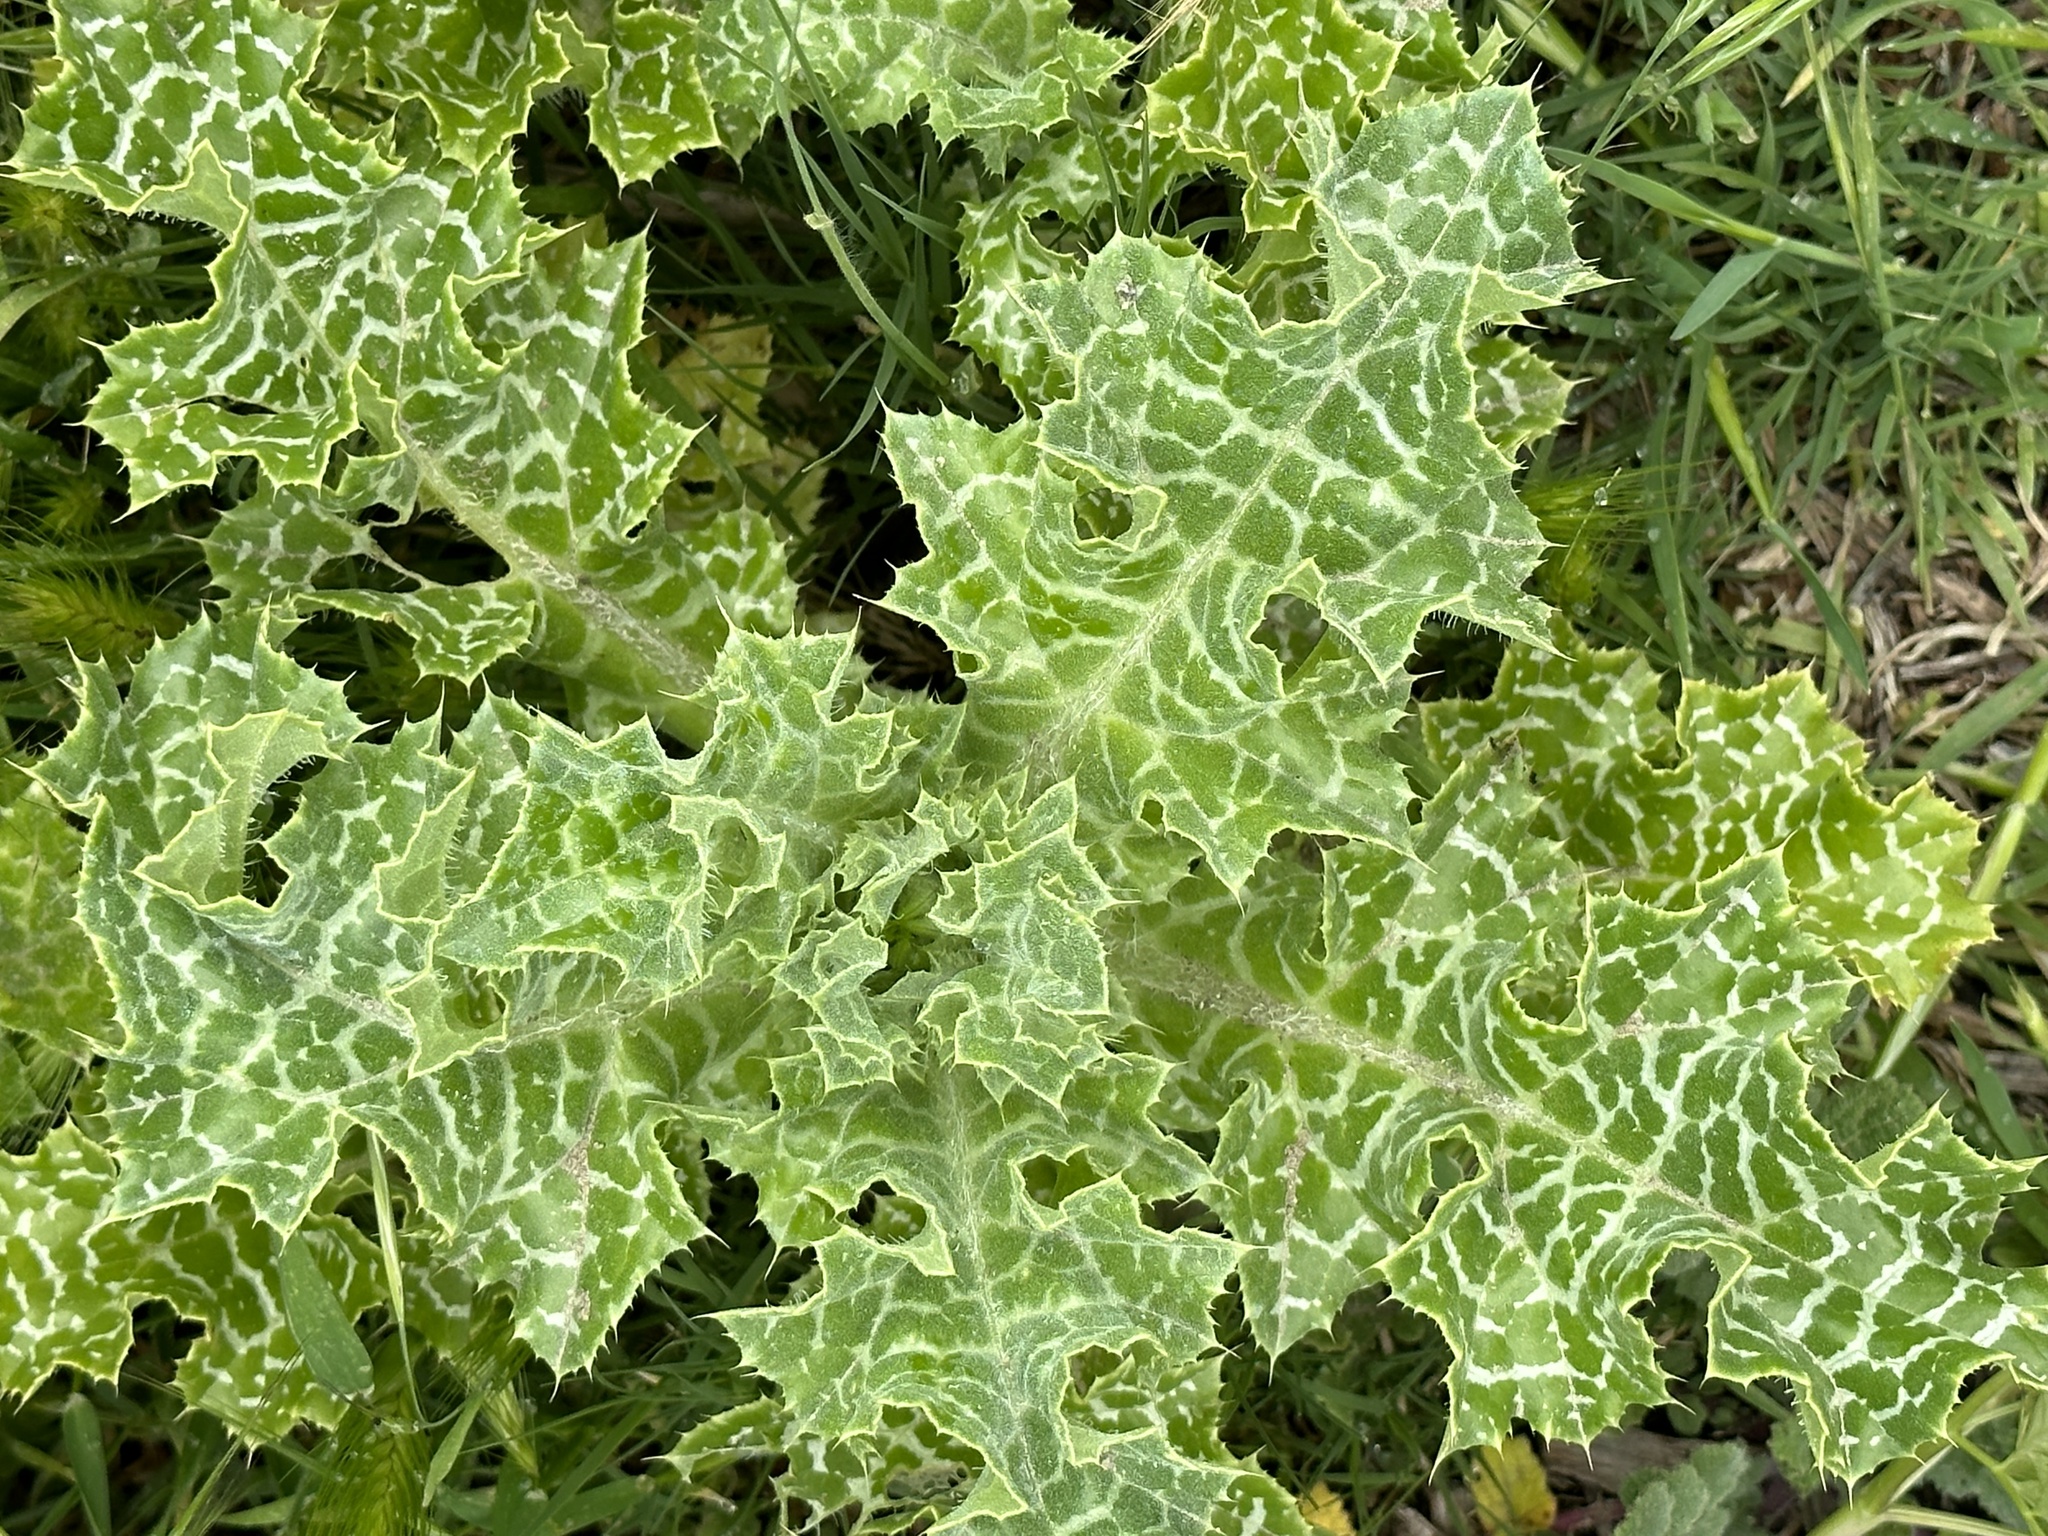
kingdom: Plantae
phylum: Tracheophyta
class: Magnoliopsida
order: Asterales
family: Asteraceae
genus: Silybum
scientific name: Silybum marianum
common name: Milk thistle
